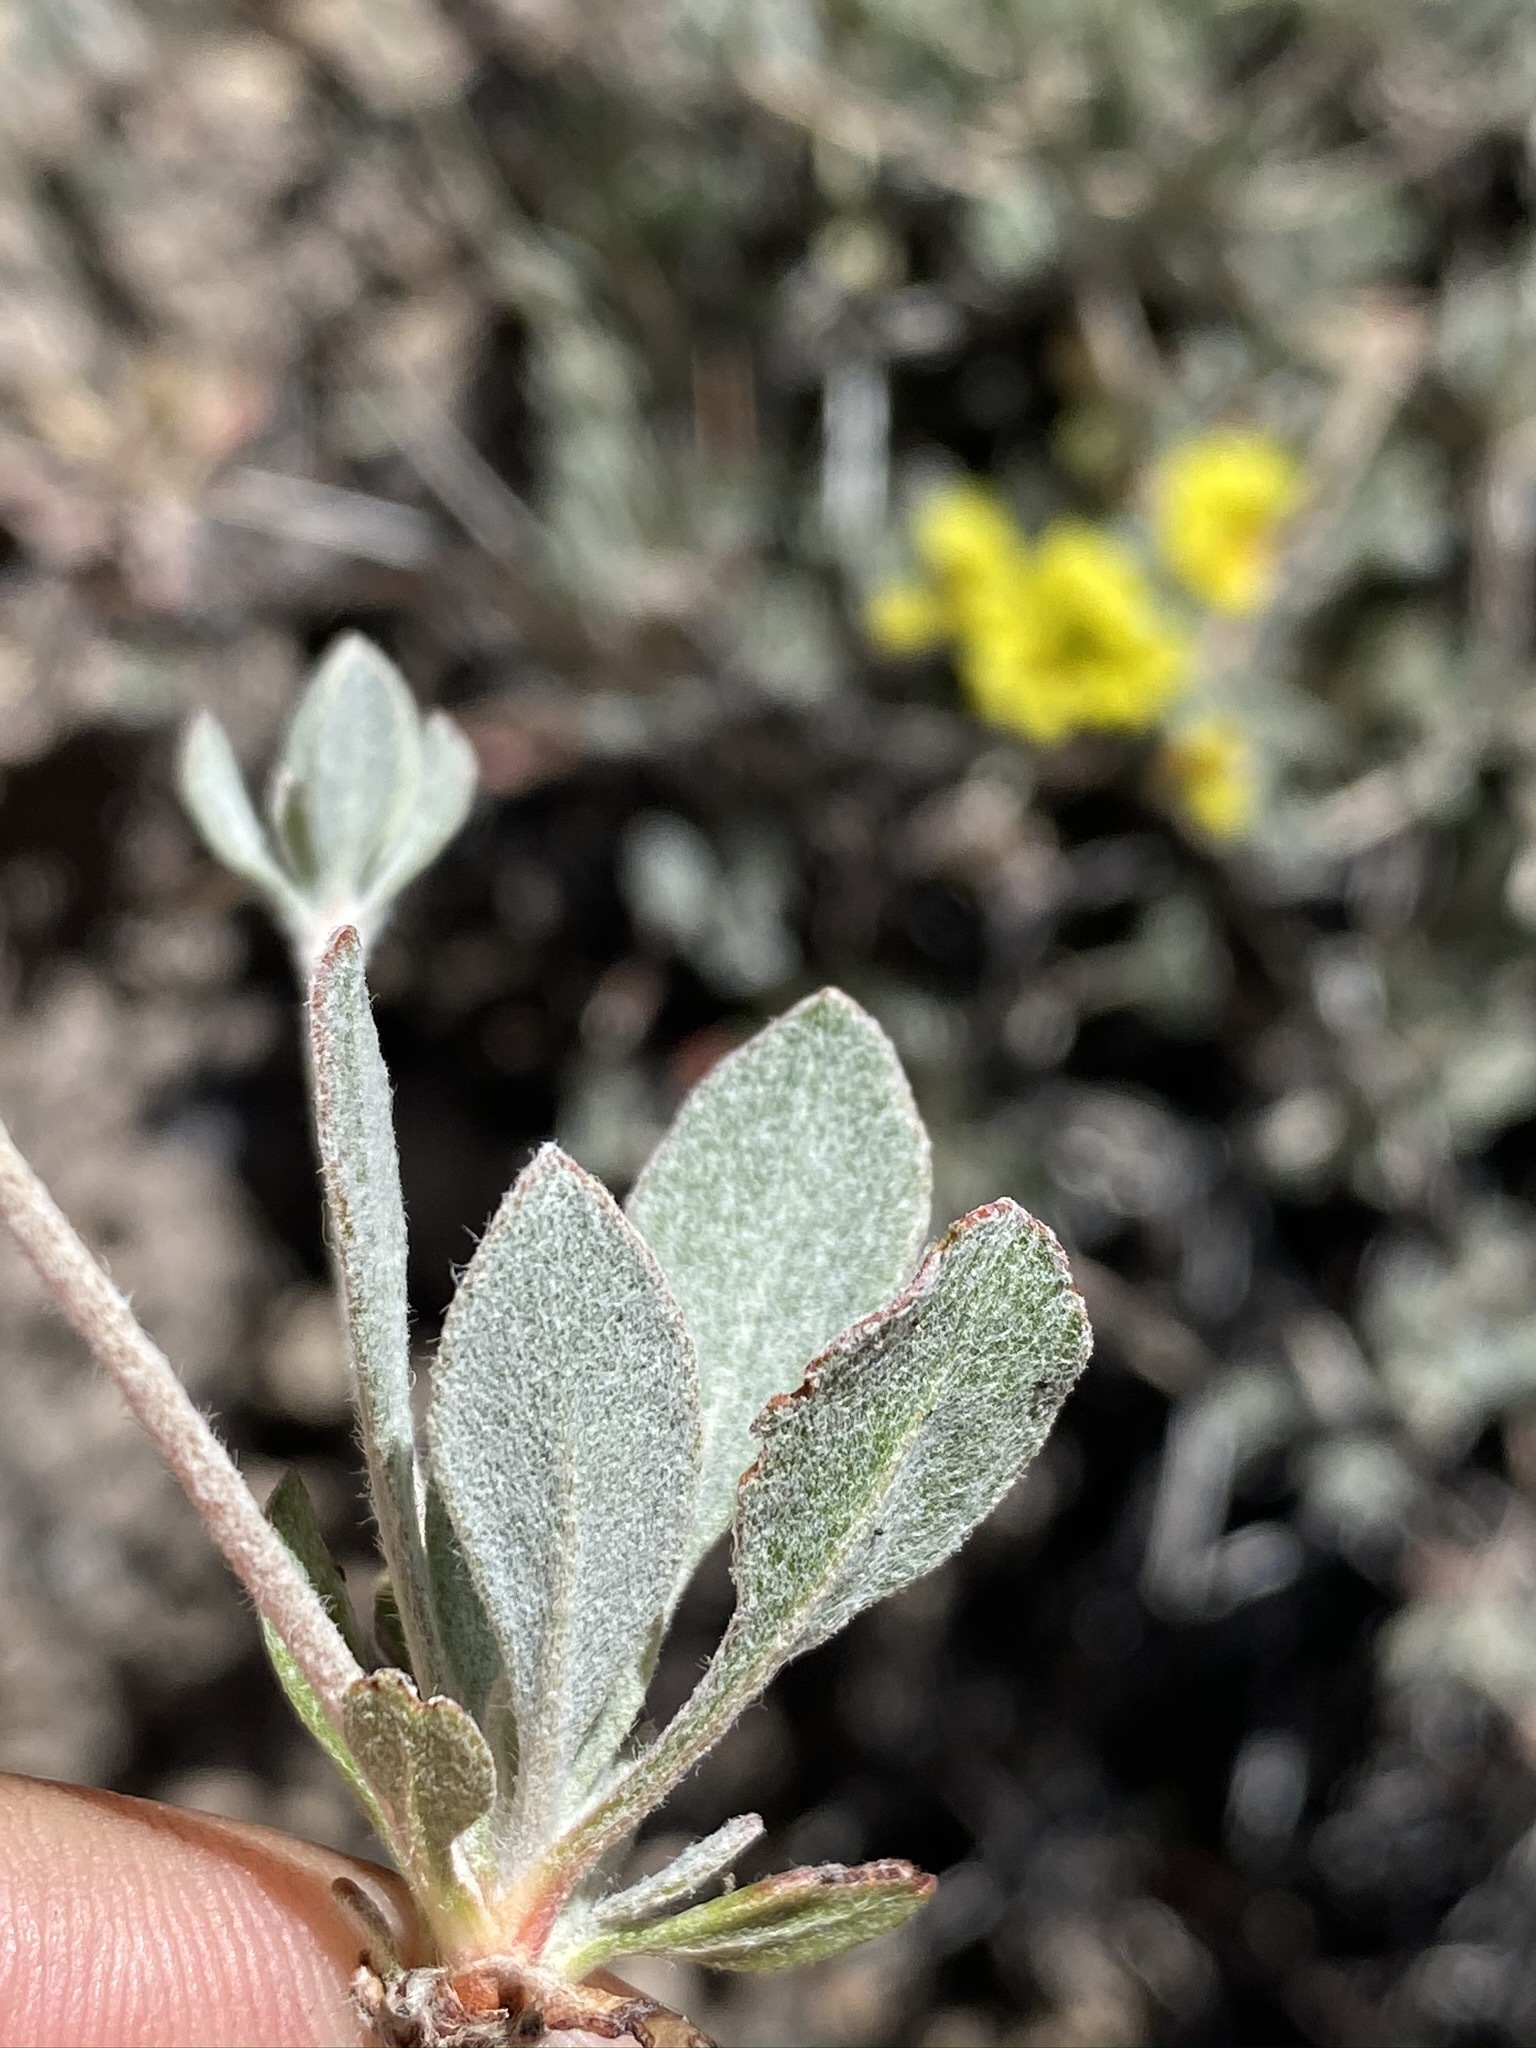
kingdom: Plantae
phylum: Tracheophyta
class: Magnoliopsida
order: Caryophyllales
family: Polygonaceae
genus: Eriogonum
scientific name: Eriogonum umbellatum
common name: Sulfur-buckwheat
